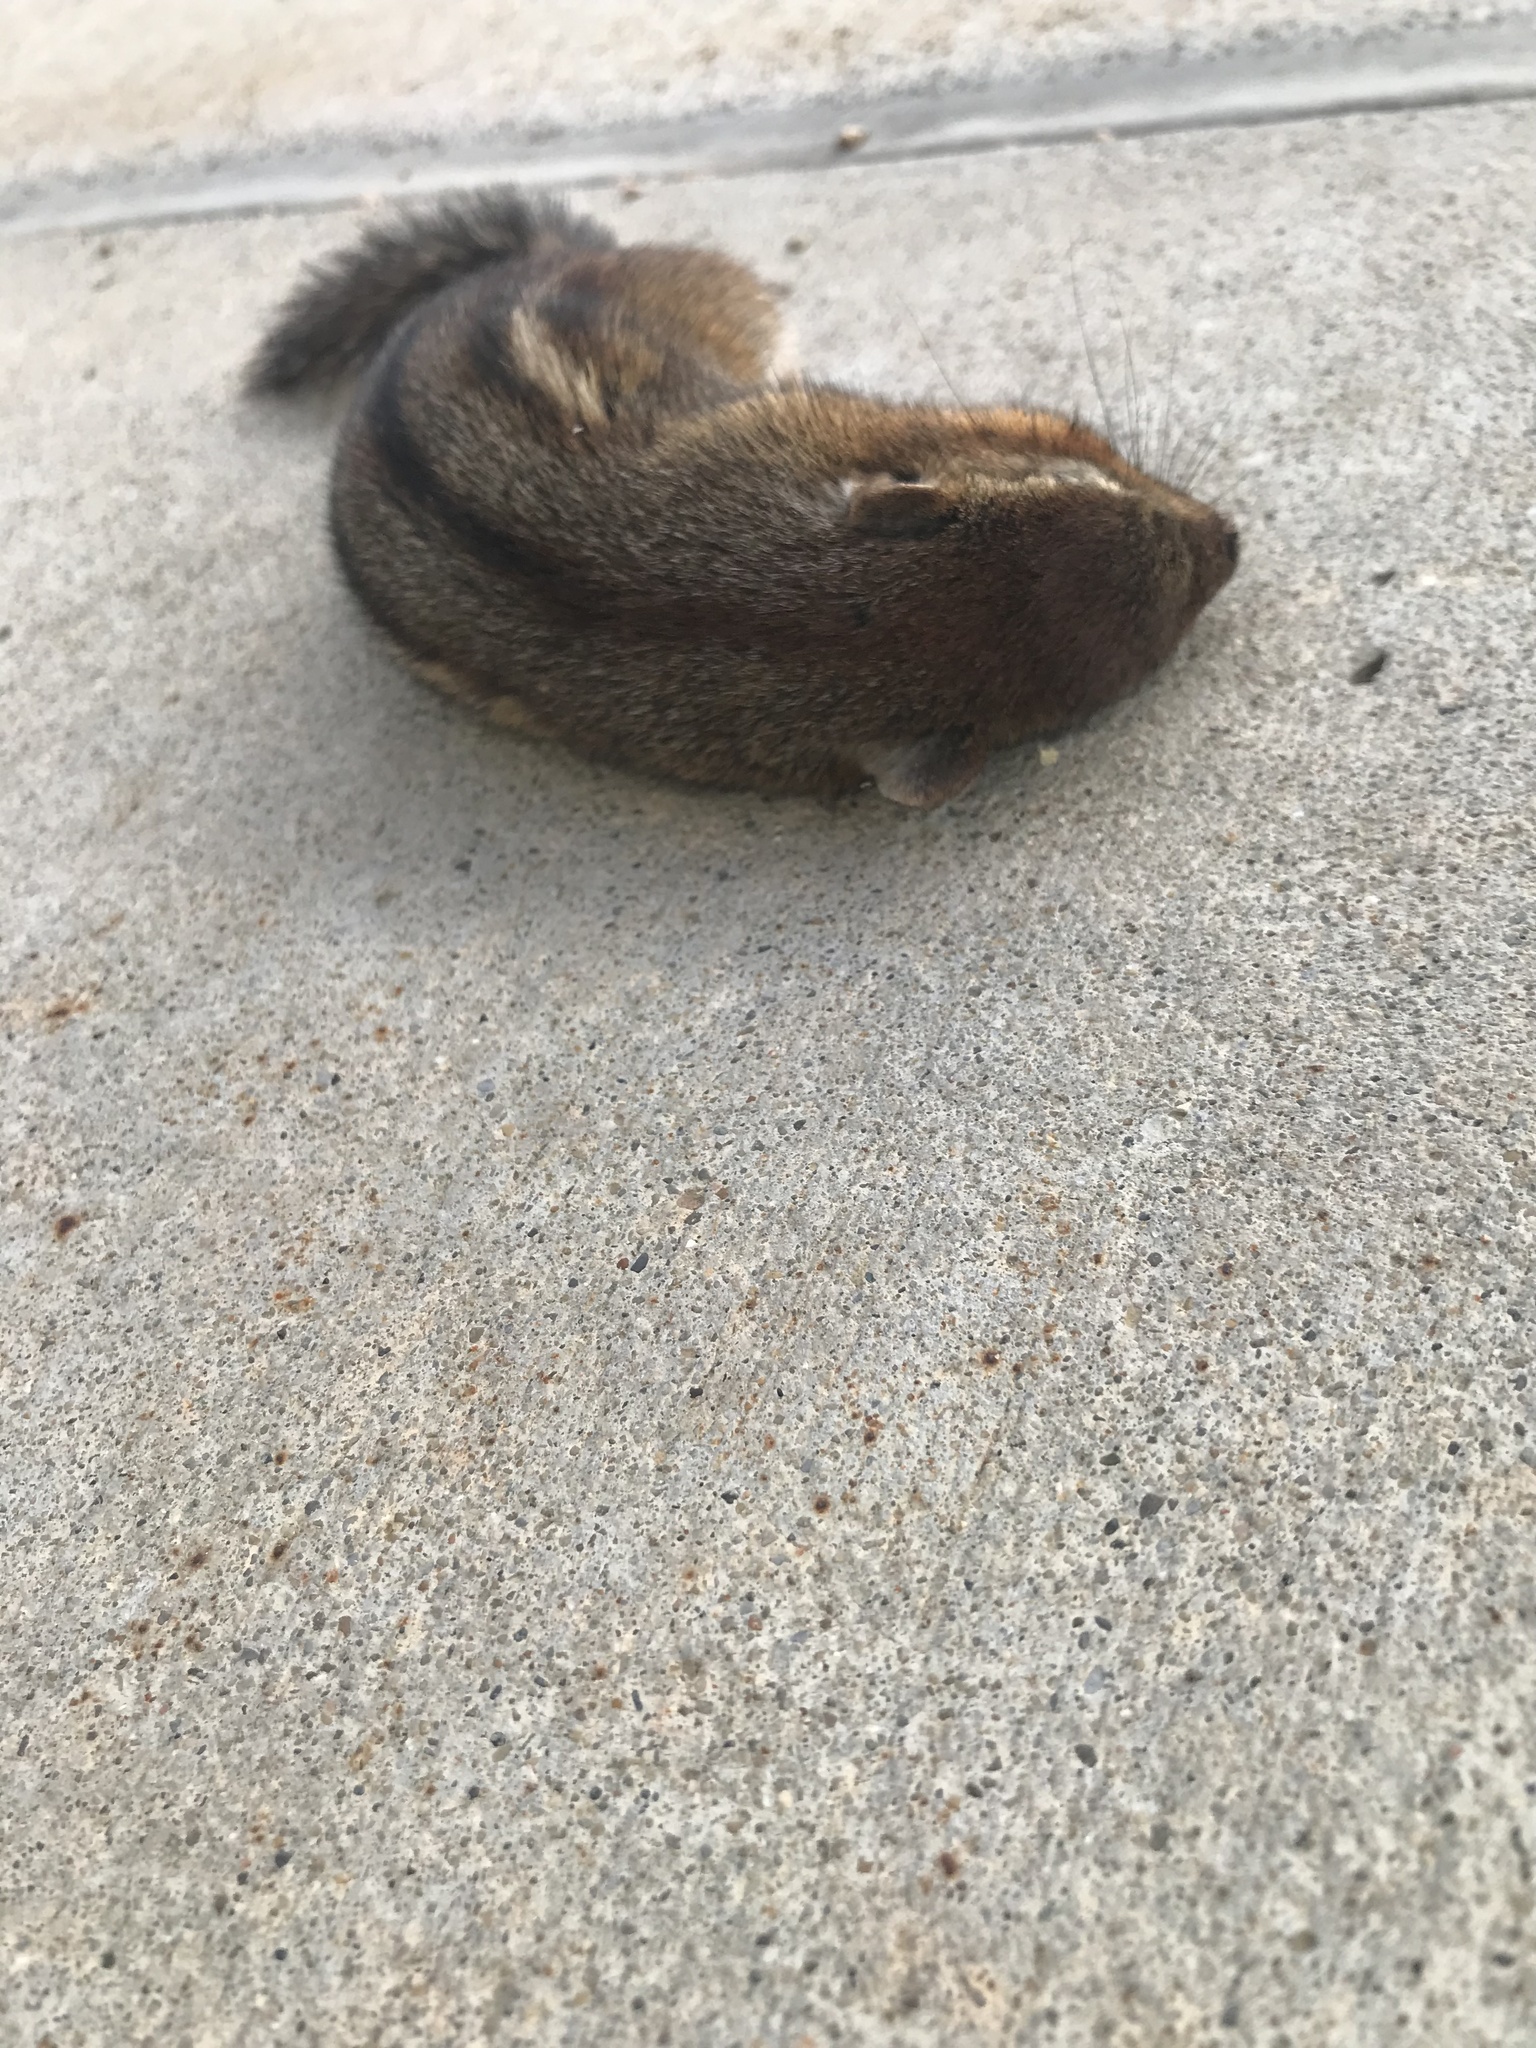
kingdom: Animalia
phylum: Chordata
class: Mammalia
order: Rodentia
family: Sciuridae
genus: Tamias
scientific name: Tamias striatus
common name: Eastern chipmunk
